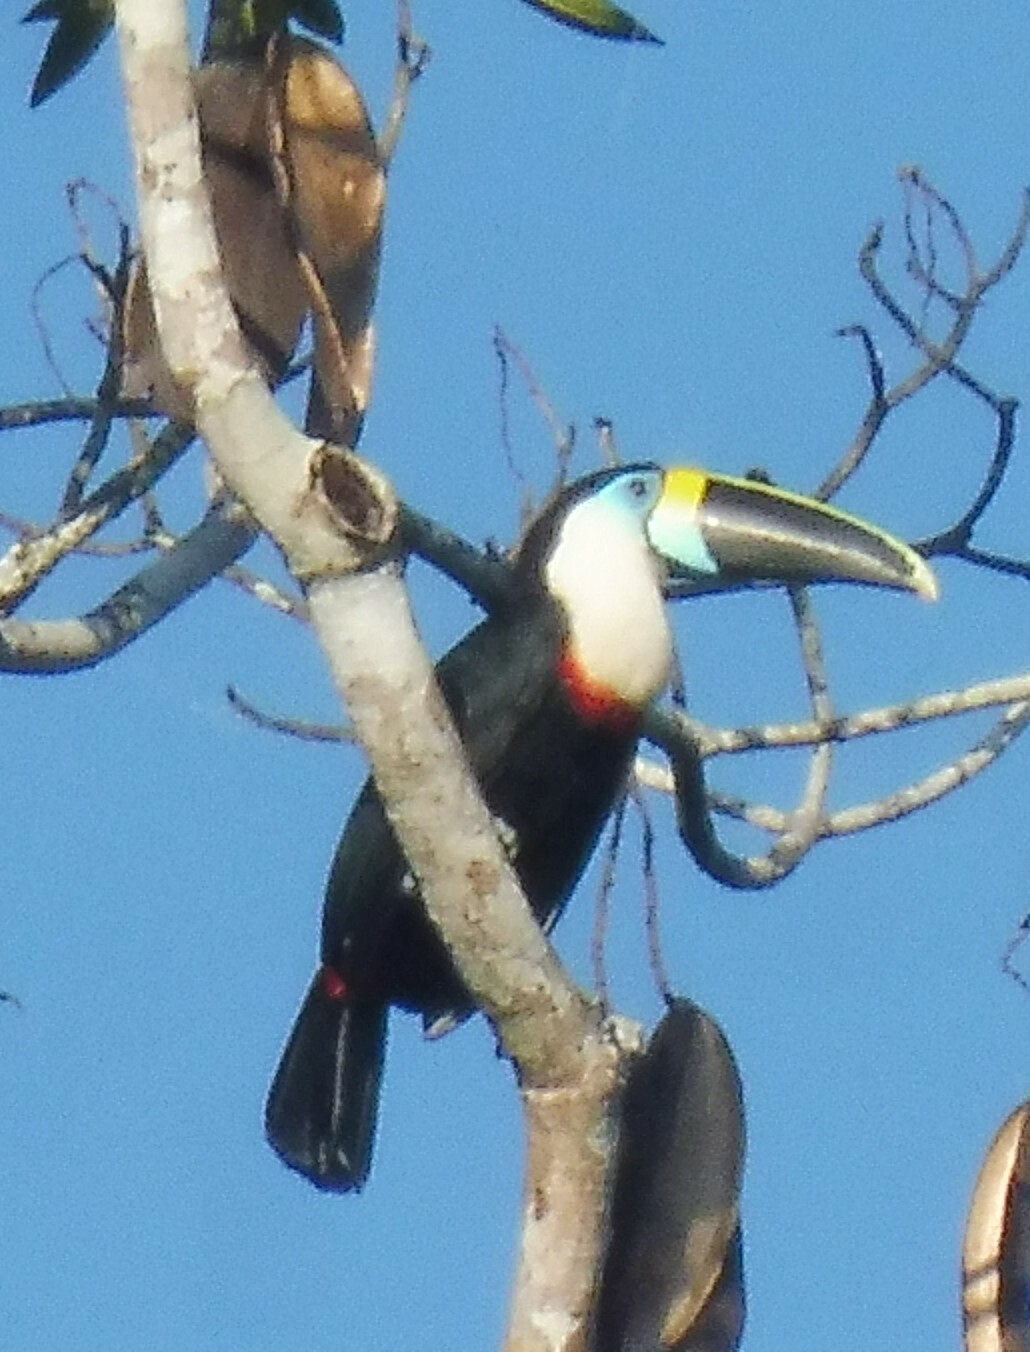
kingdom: Animalia
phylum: Chordata
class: Aves
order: Piciformes
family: Ramphastidae
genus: Ramphastos
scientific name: Ramphastos tucanus
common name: White-throated toucan
